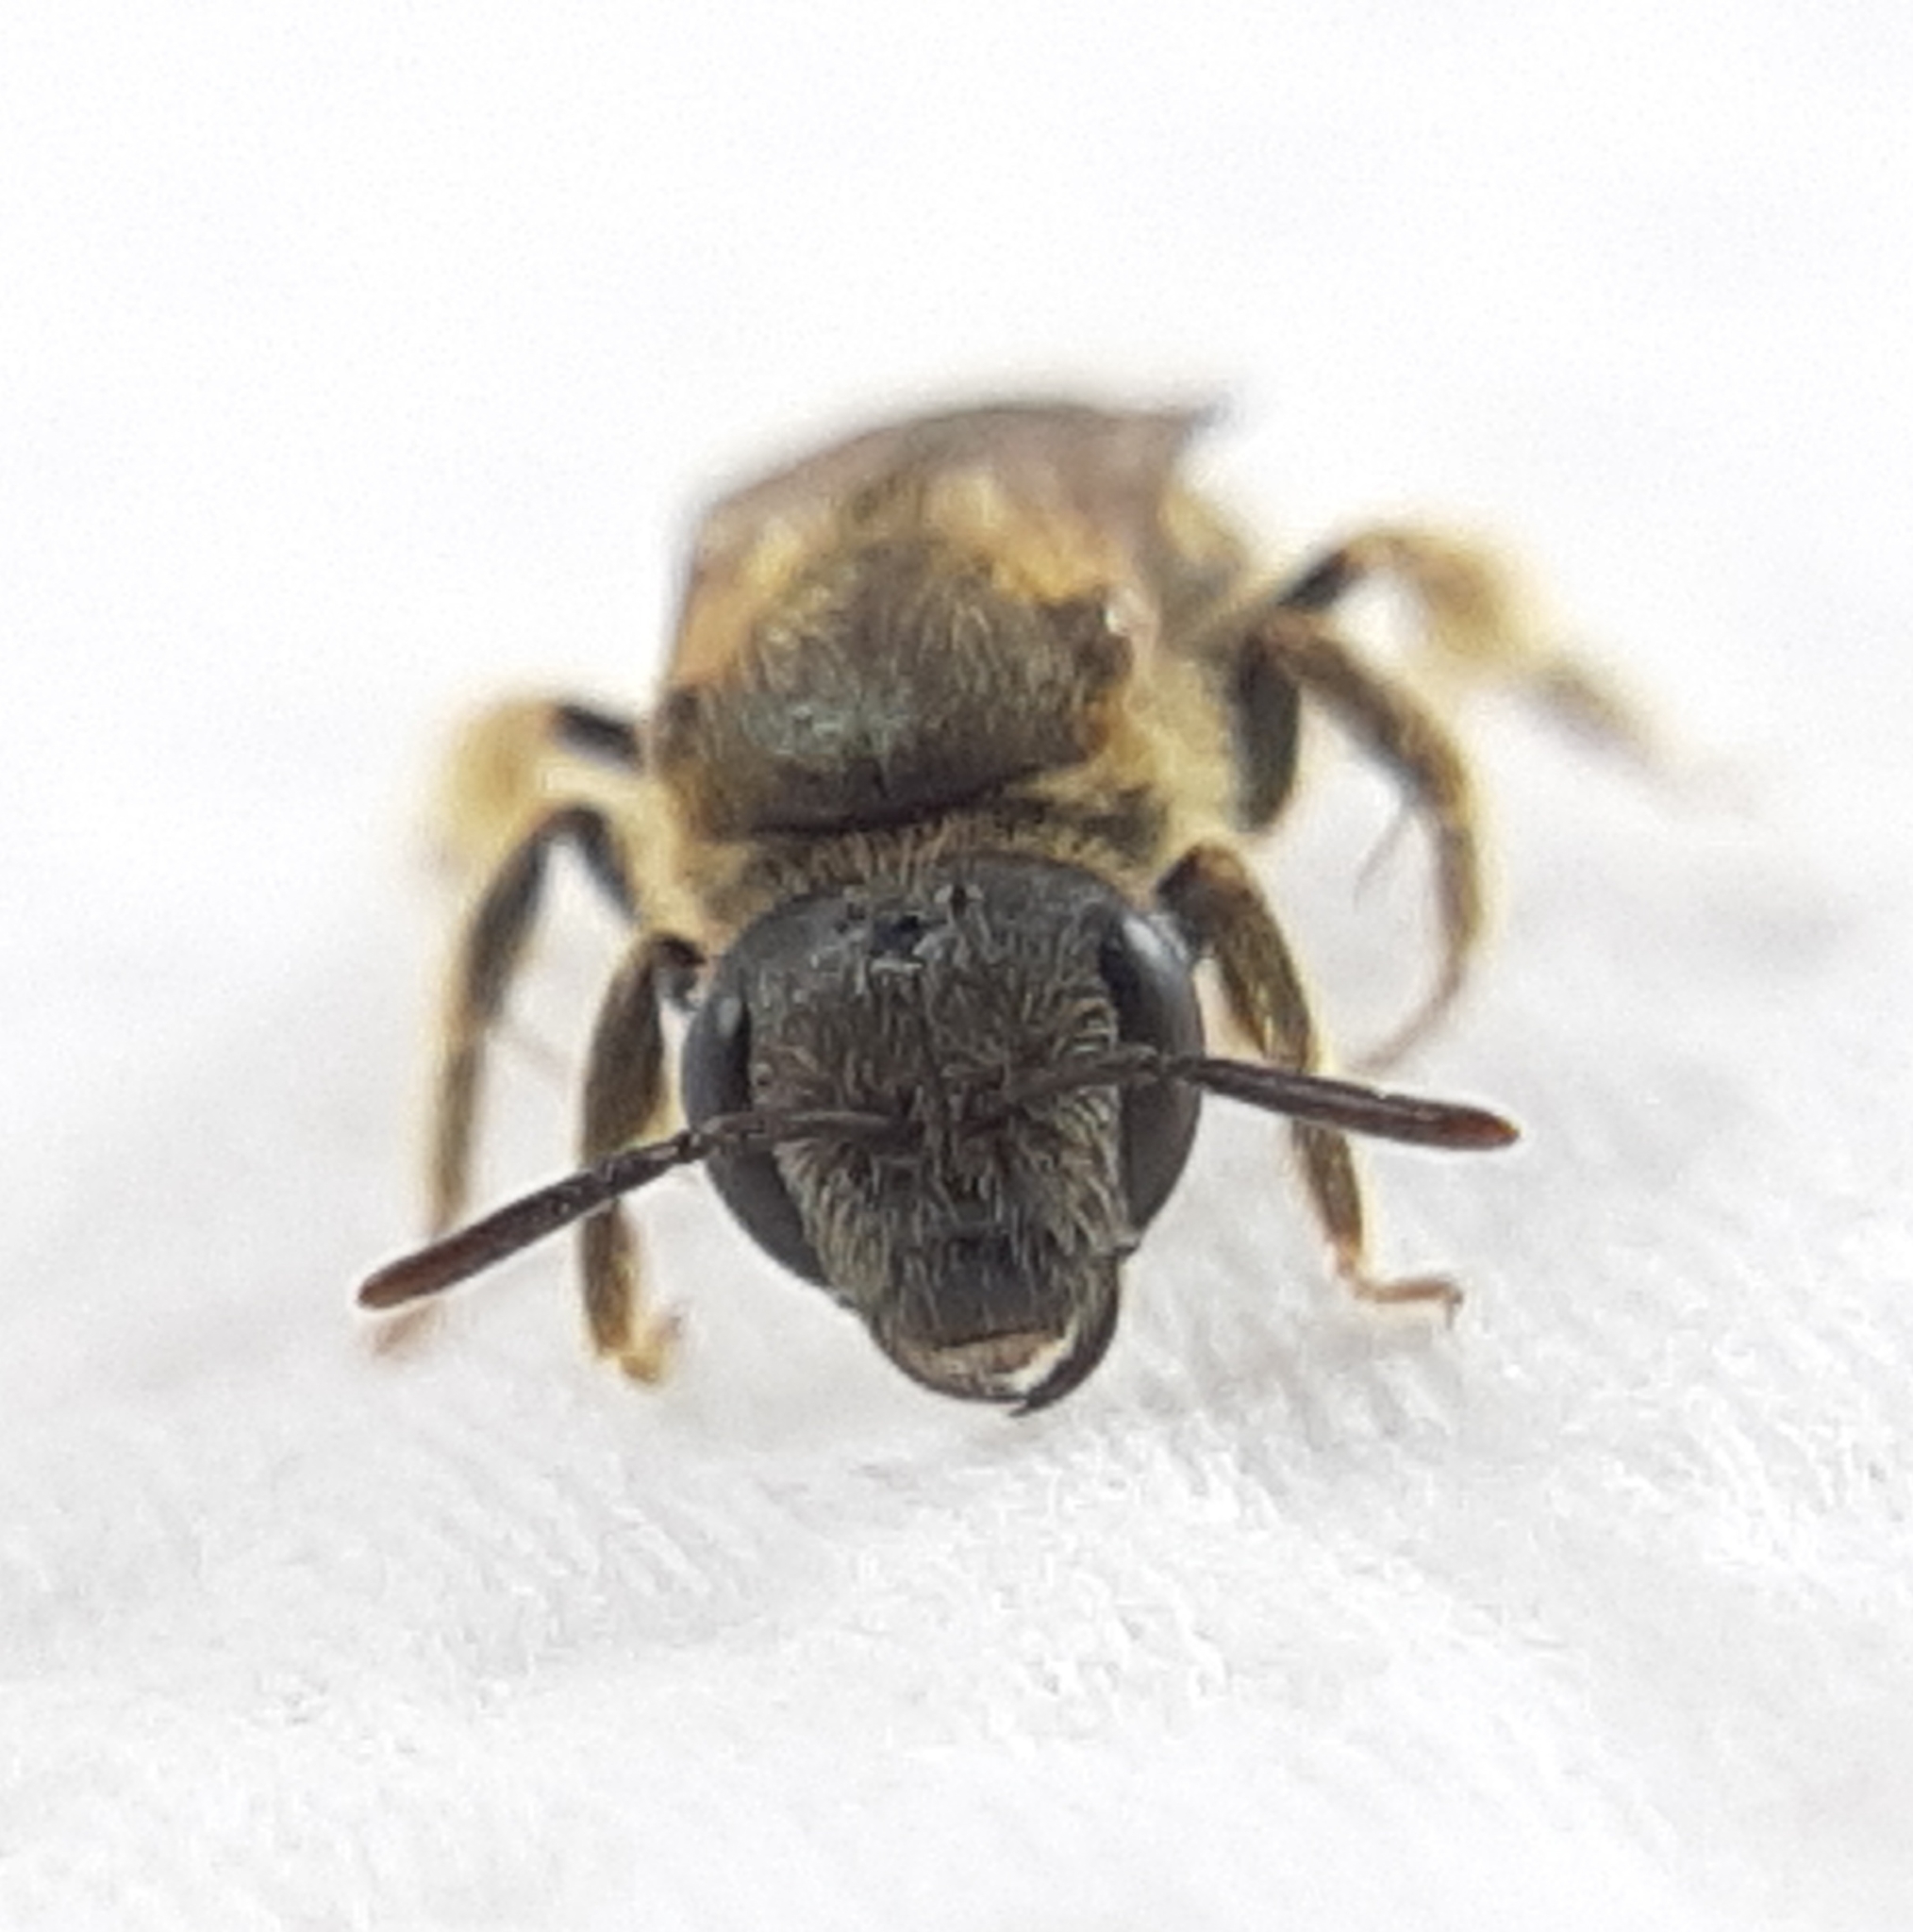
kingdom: Animalia
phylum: Arthropoda
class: Insecta
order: Hymenoptera
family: Halictidae
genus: Halictus
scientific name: Halictus confusus
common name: Southern bronze furrow bee
